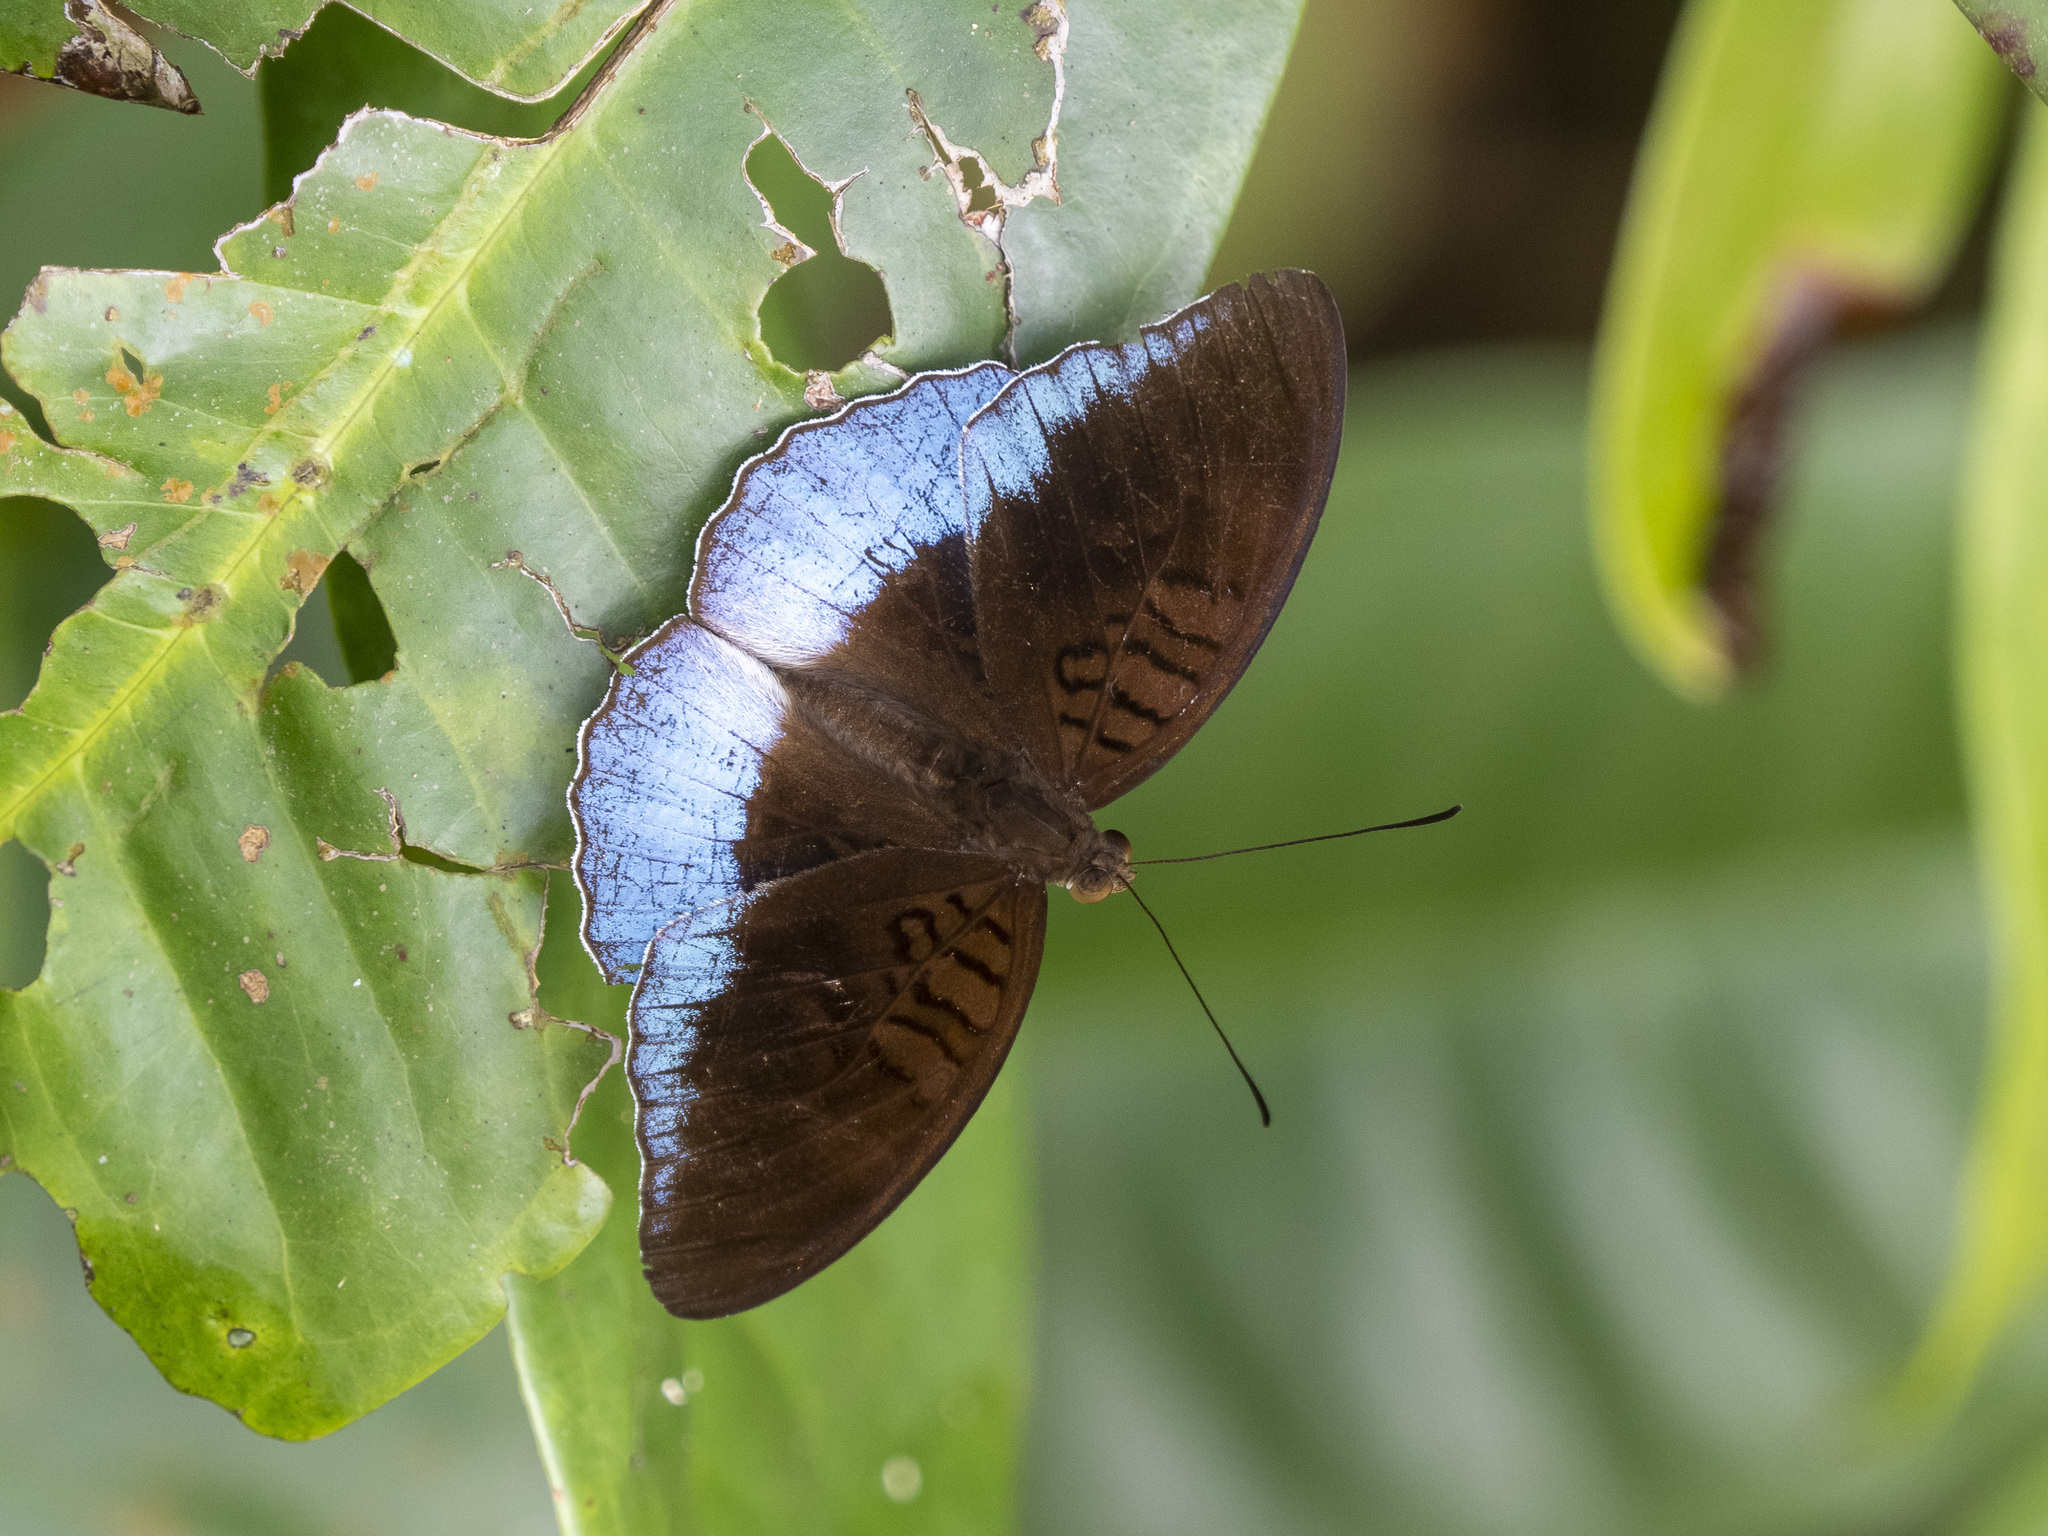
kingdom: Animalia
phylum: Arthropoda
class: Insecta
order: Lepidoptera
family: Nymphalidae
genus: Tanaecia
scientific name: Tanaecia iapis
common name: Horsfield's baron
